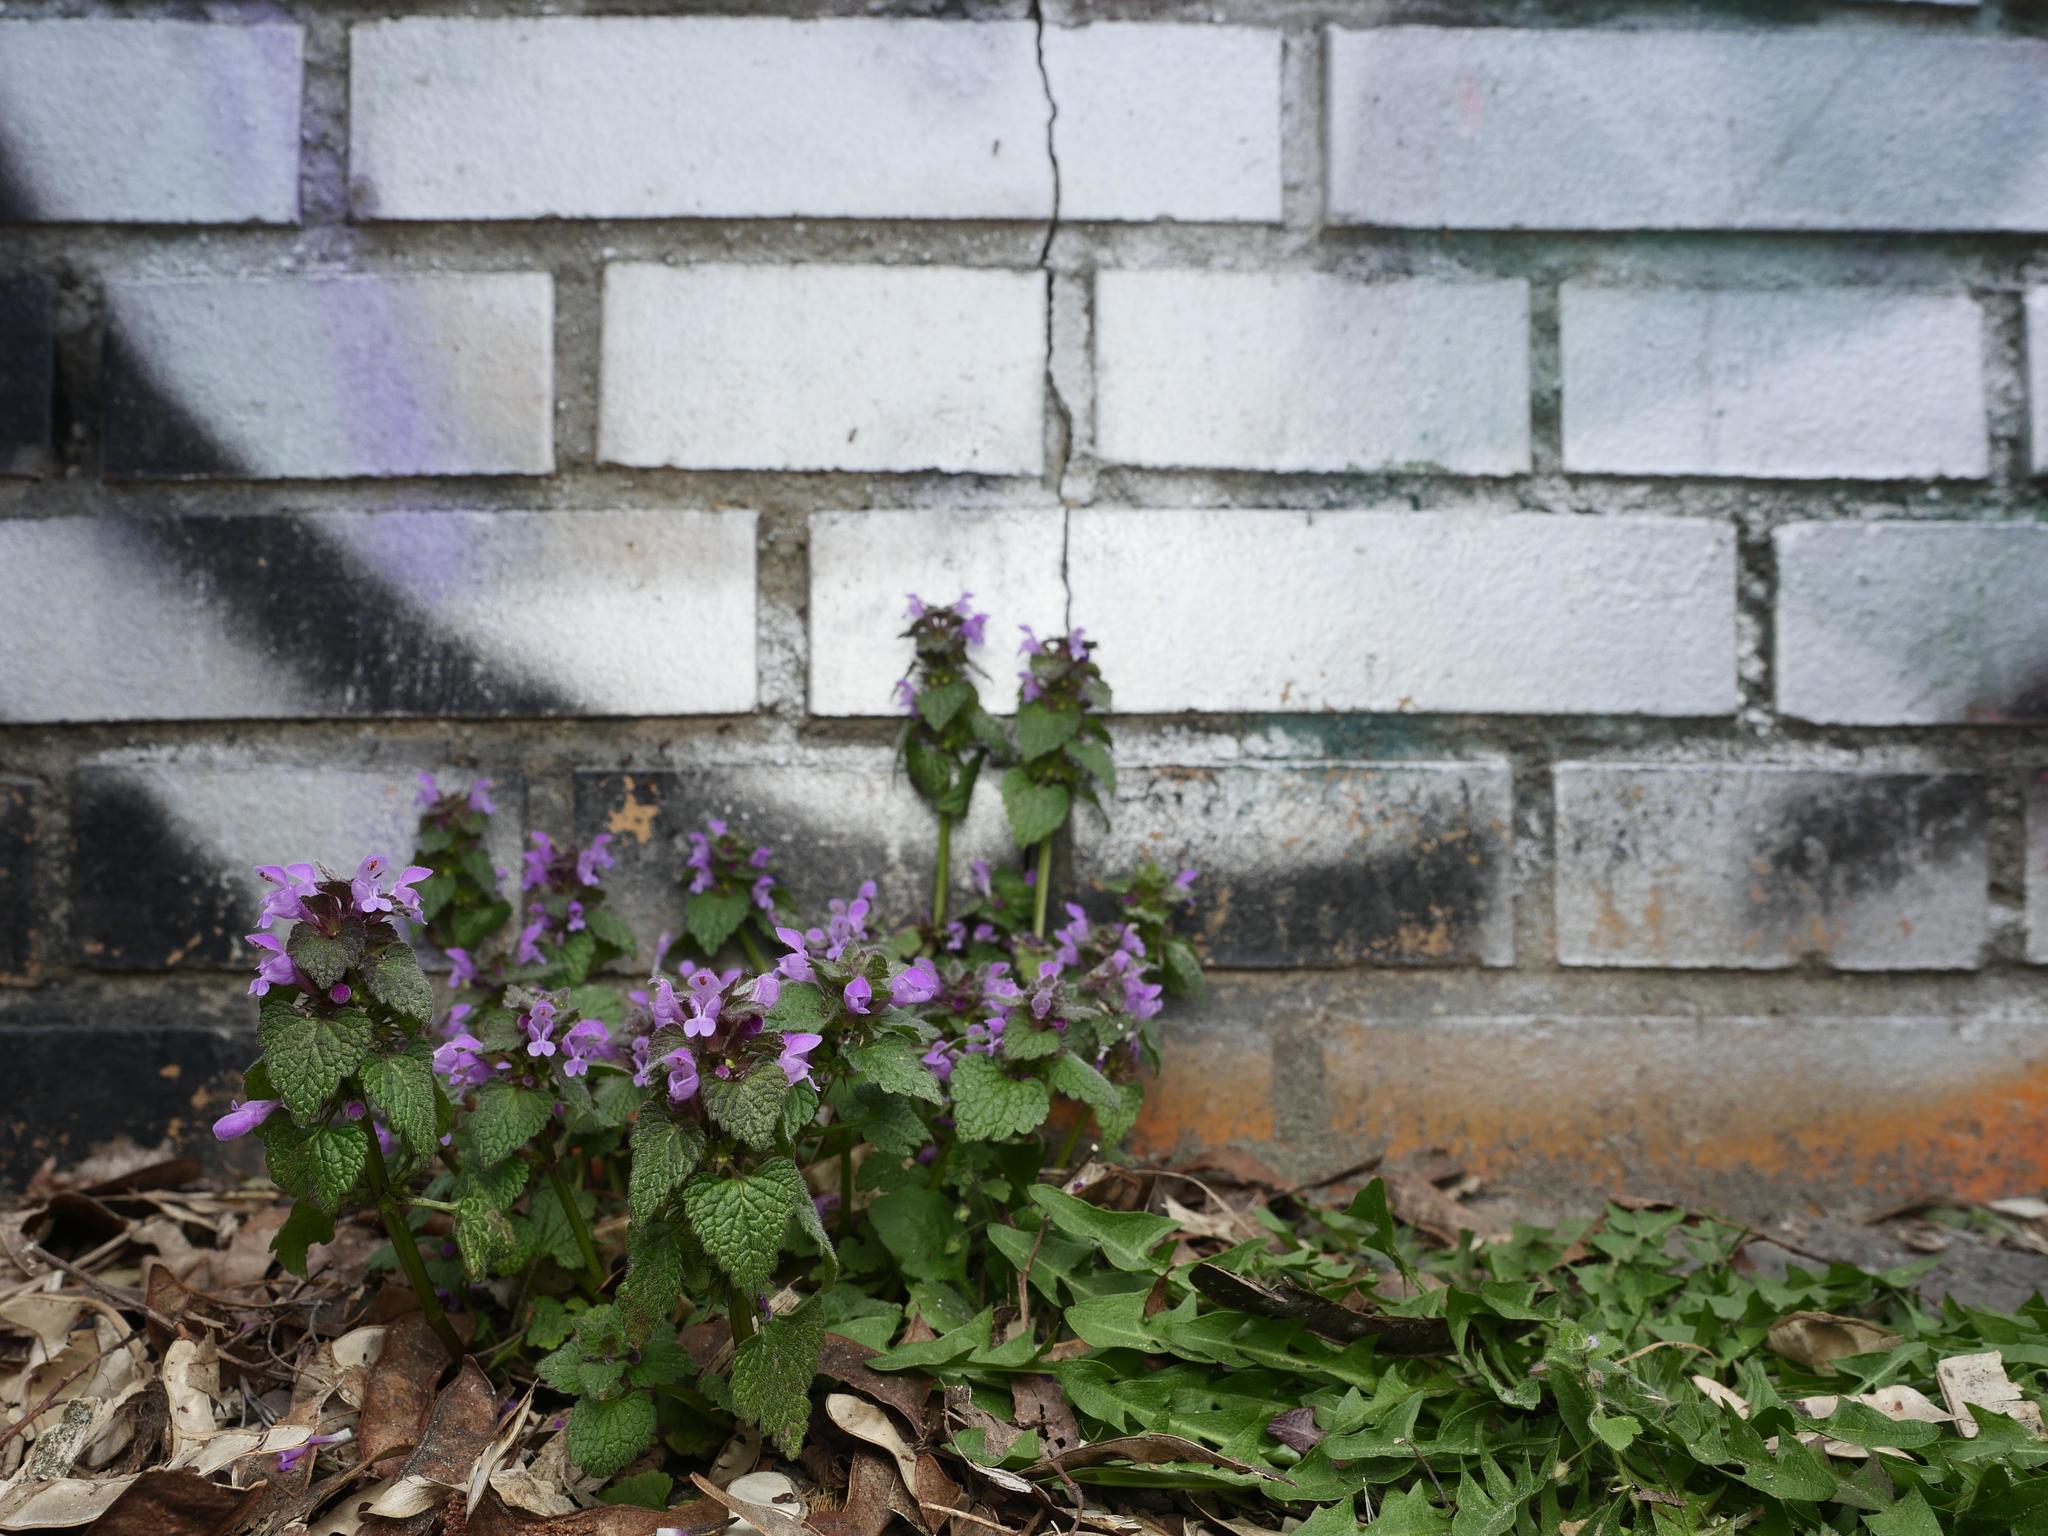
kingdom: Plantae
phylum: Tracheophyta
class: Magnoliopsida
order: Lamiales
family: Lamiaceae
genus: Lamium
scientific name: Lamium purpureum
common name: Red dead-nettle
